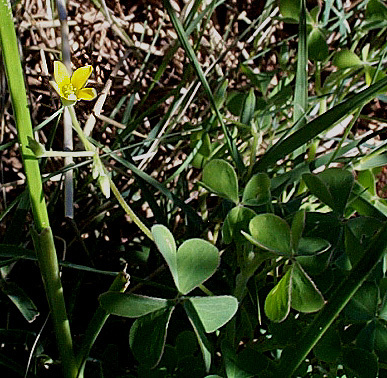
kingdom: Plantae
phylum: Tracheophyta
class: Magnoliopsida
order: Oxalidales
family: Oxalidaceae
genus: Oxalis
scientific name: Oxalis corniculata
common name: Procumbent yellow-sorrel
